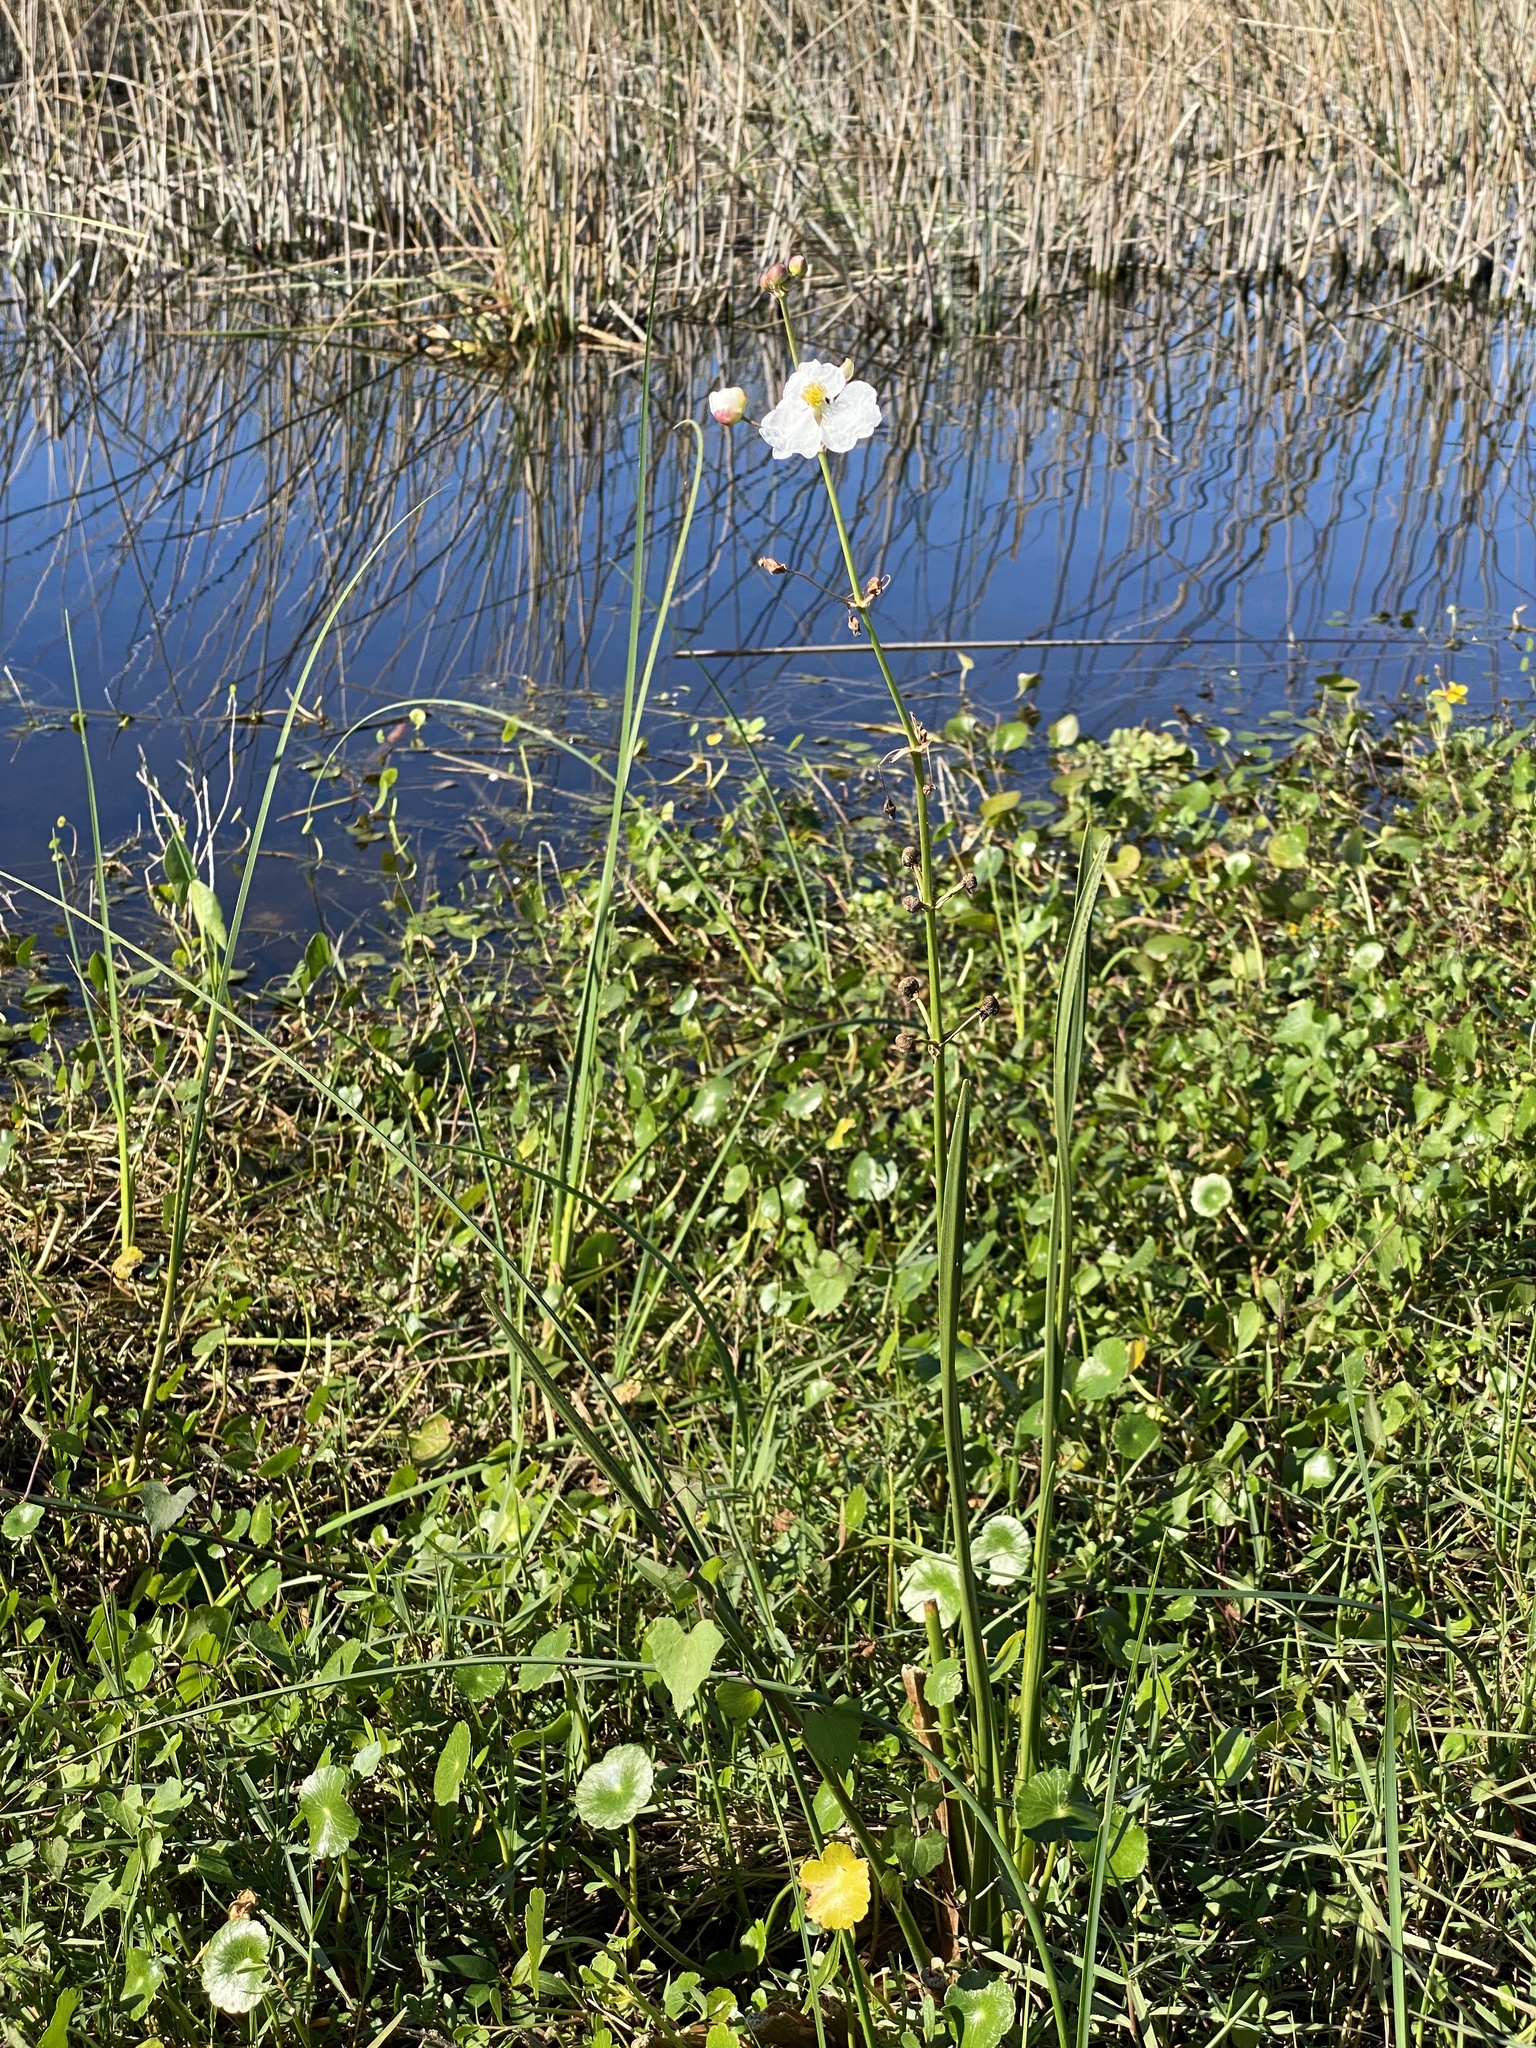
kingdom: Plantae
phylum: Tracheophyta
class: Liliopsida
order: Alismatales
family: Alismataceae
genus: Sagittaria
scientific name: Sagittaria lancifolia
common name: Lance-leaf arrowhead
